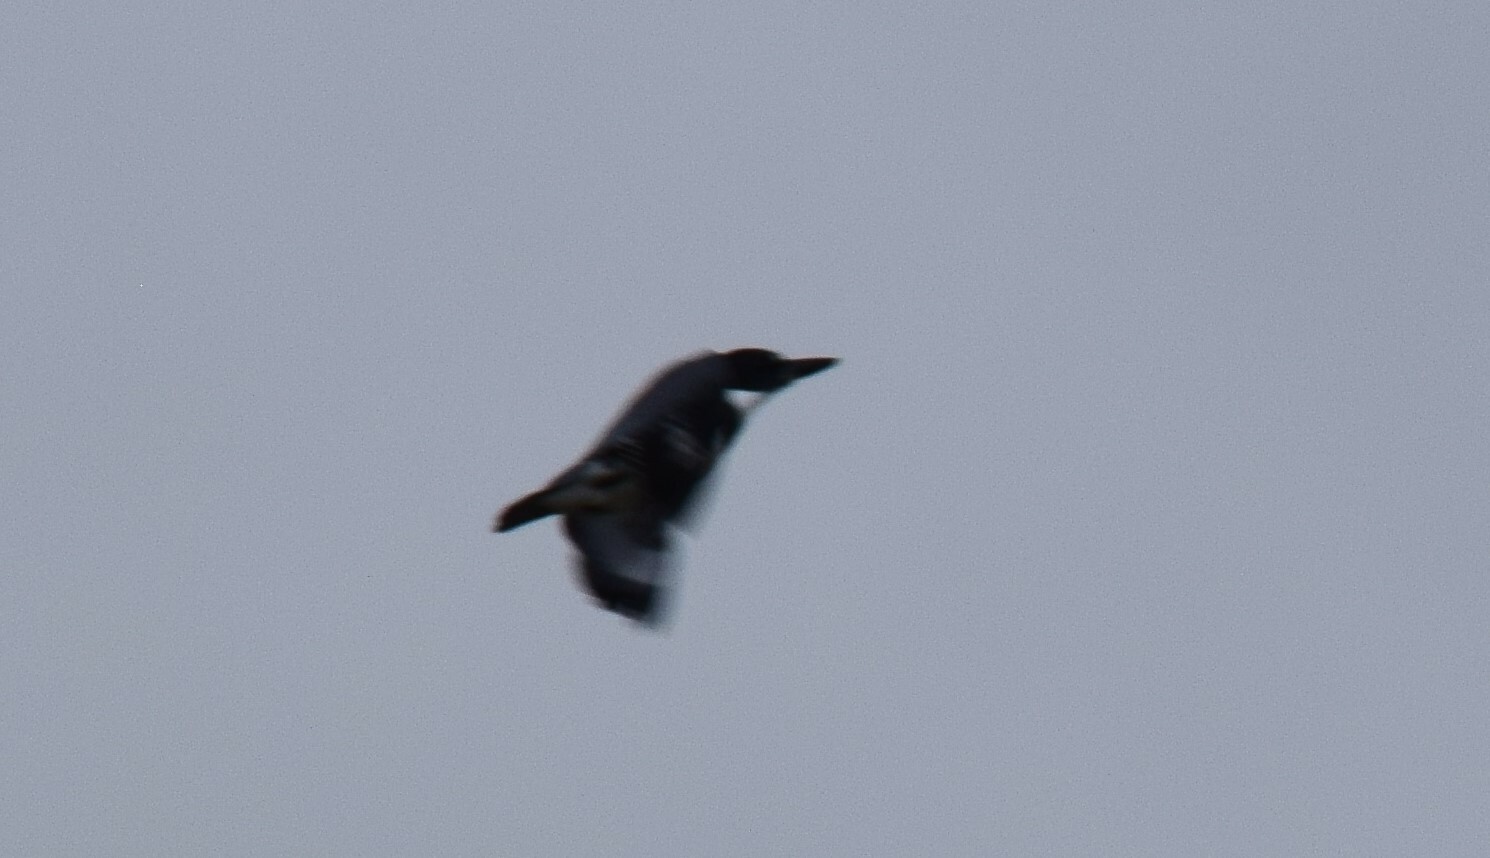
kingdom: Animalia
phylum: Chordata
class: Aves
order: Coraciiformes
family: Alcedinidae
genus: Megaceryle
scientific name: Megaceryle alcyon
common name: Belted kingfisher
